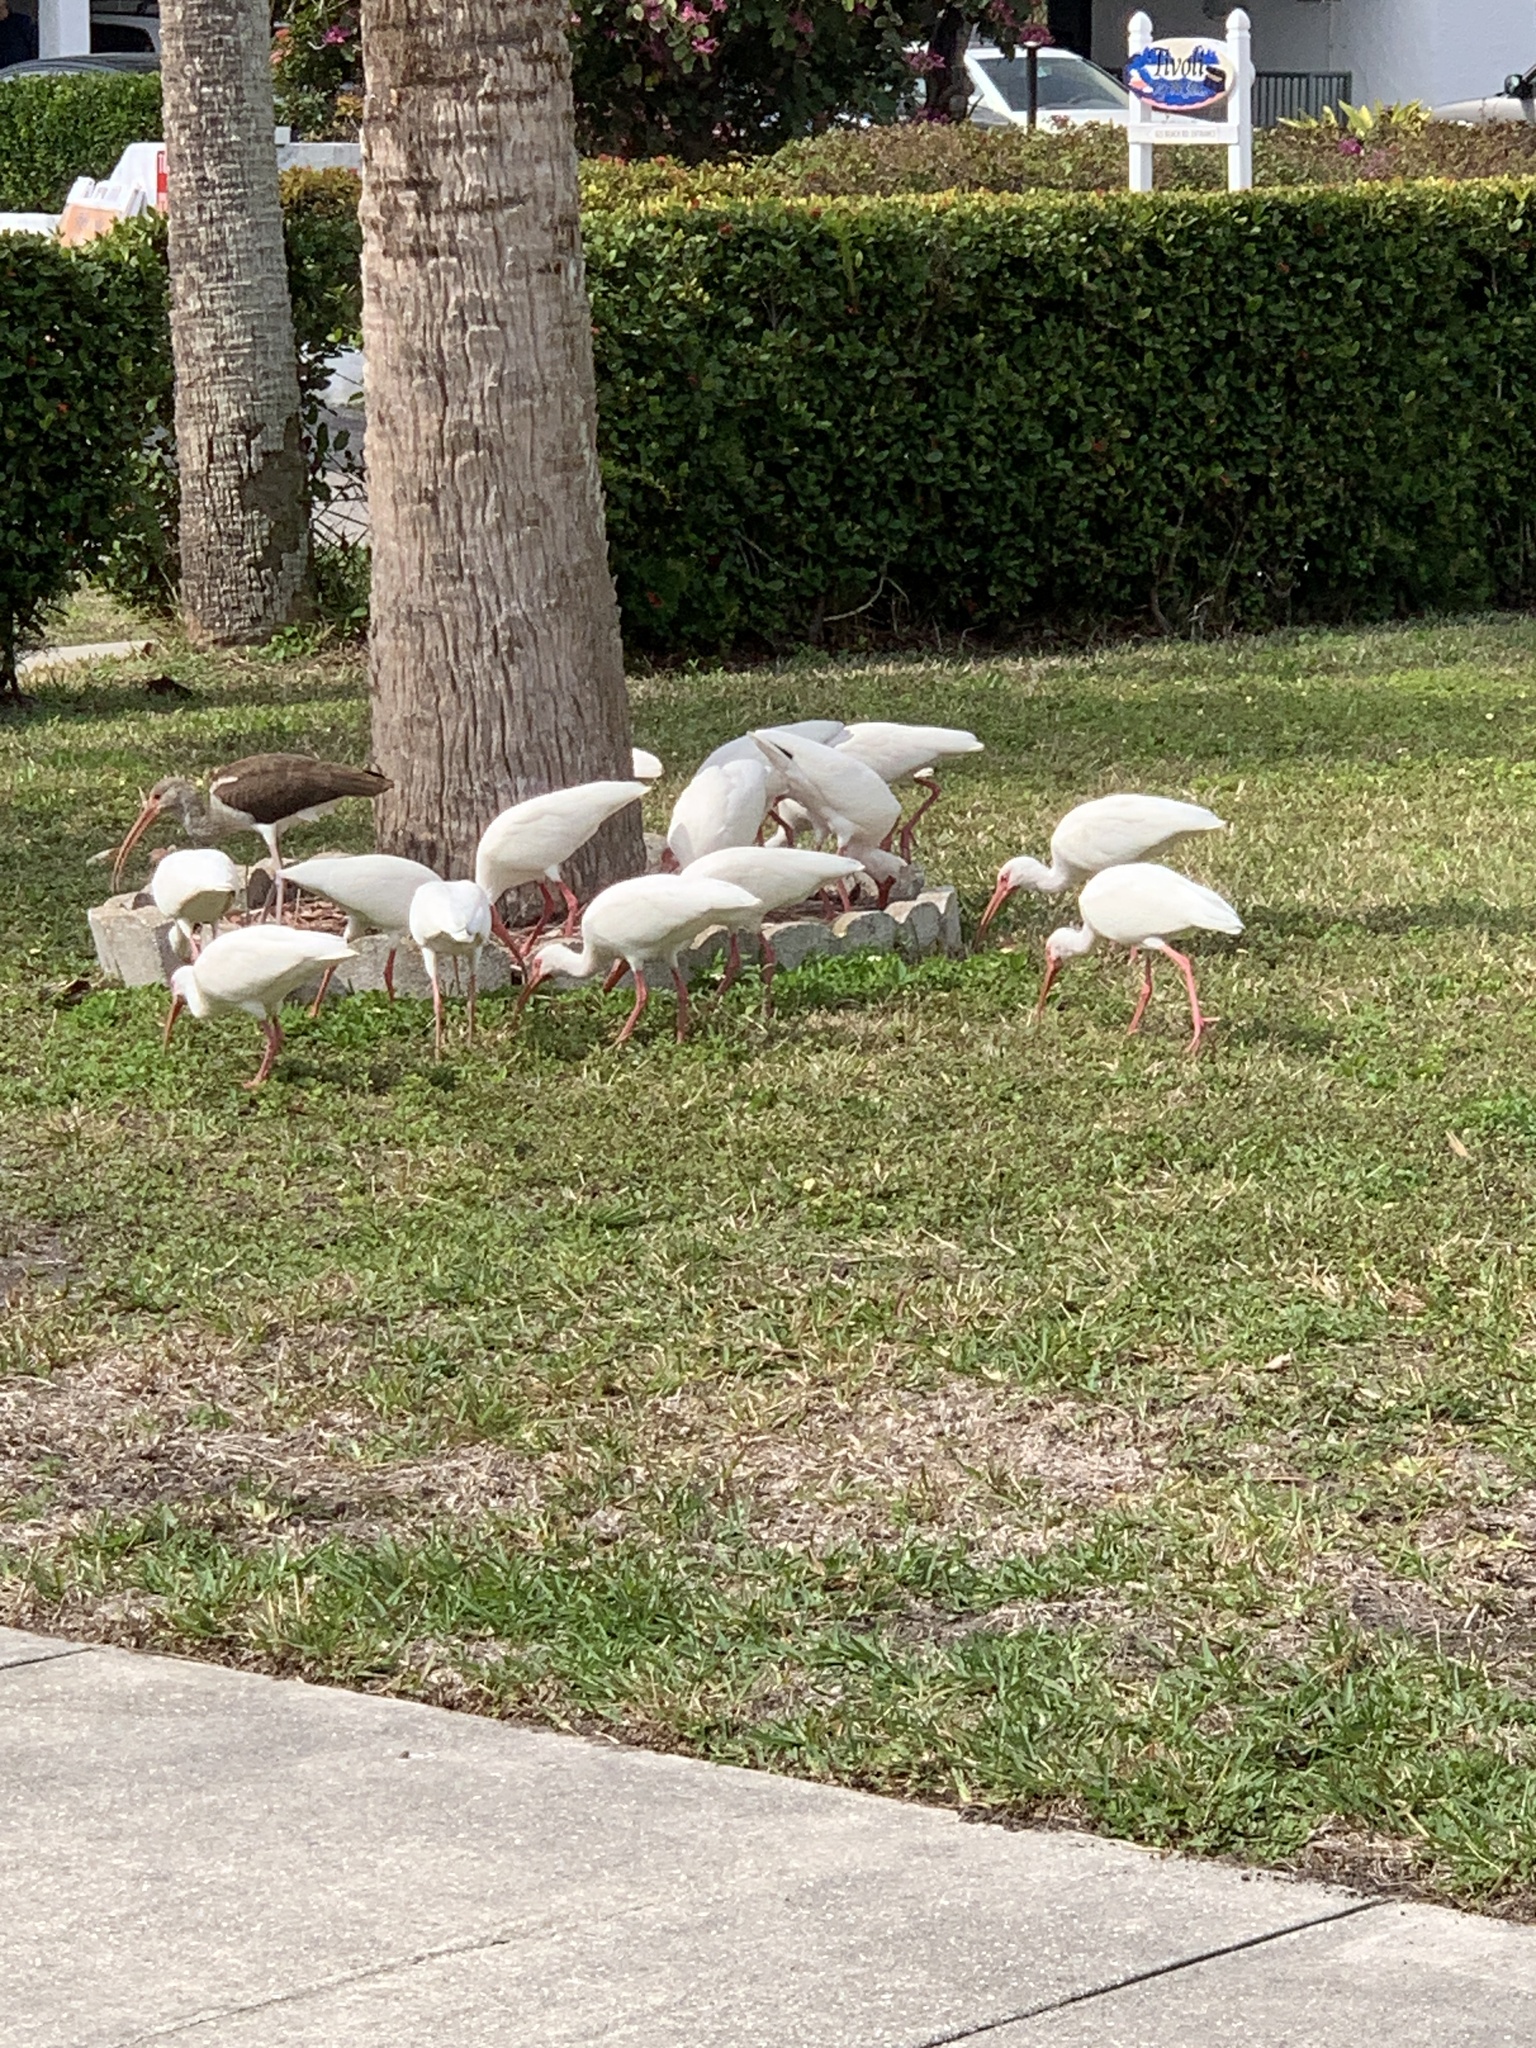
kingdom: Animalia
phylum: Chordata
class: Aves
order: Pelecaniformes
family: Threskiornithidae
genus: Eudocimus
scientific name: Eudocimus albus
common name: White ibis
